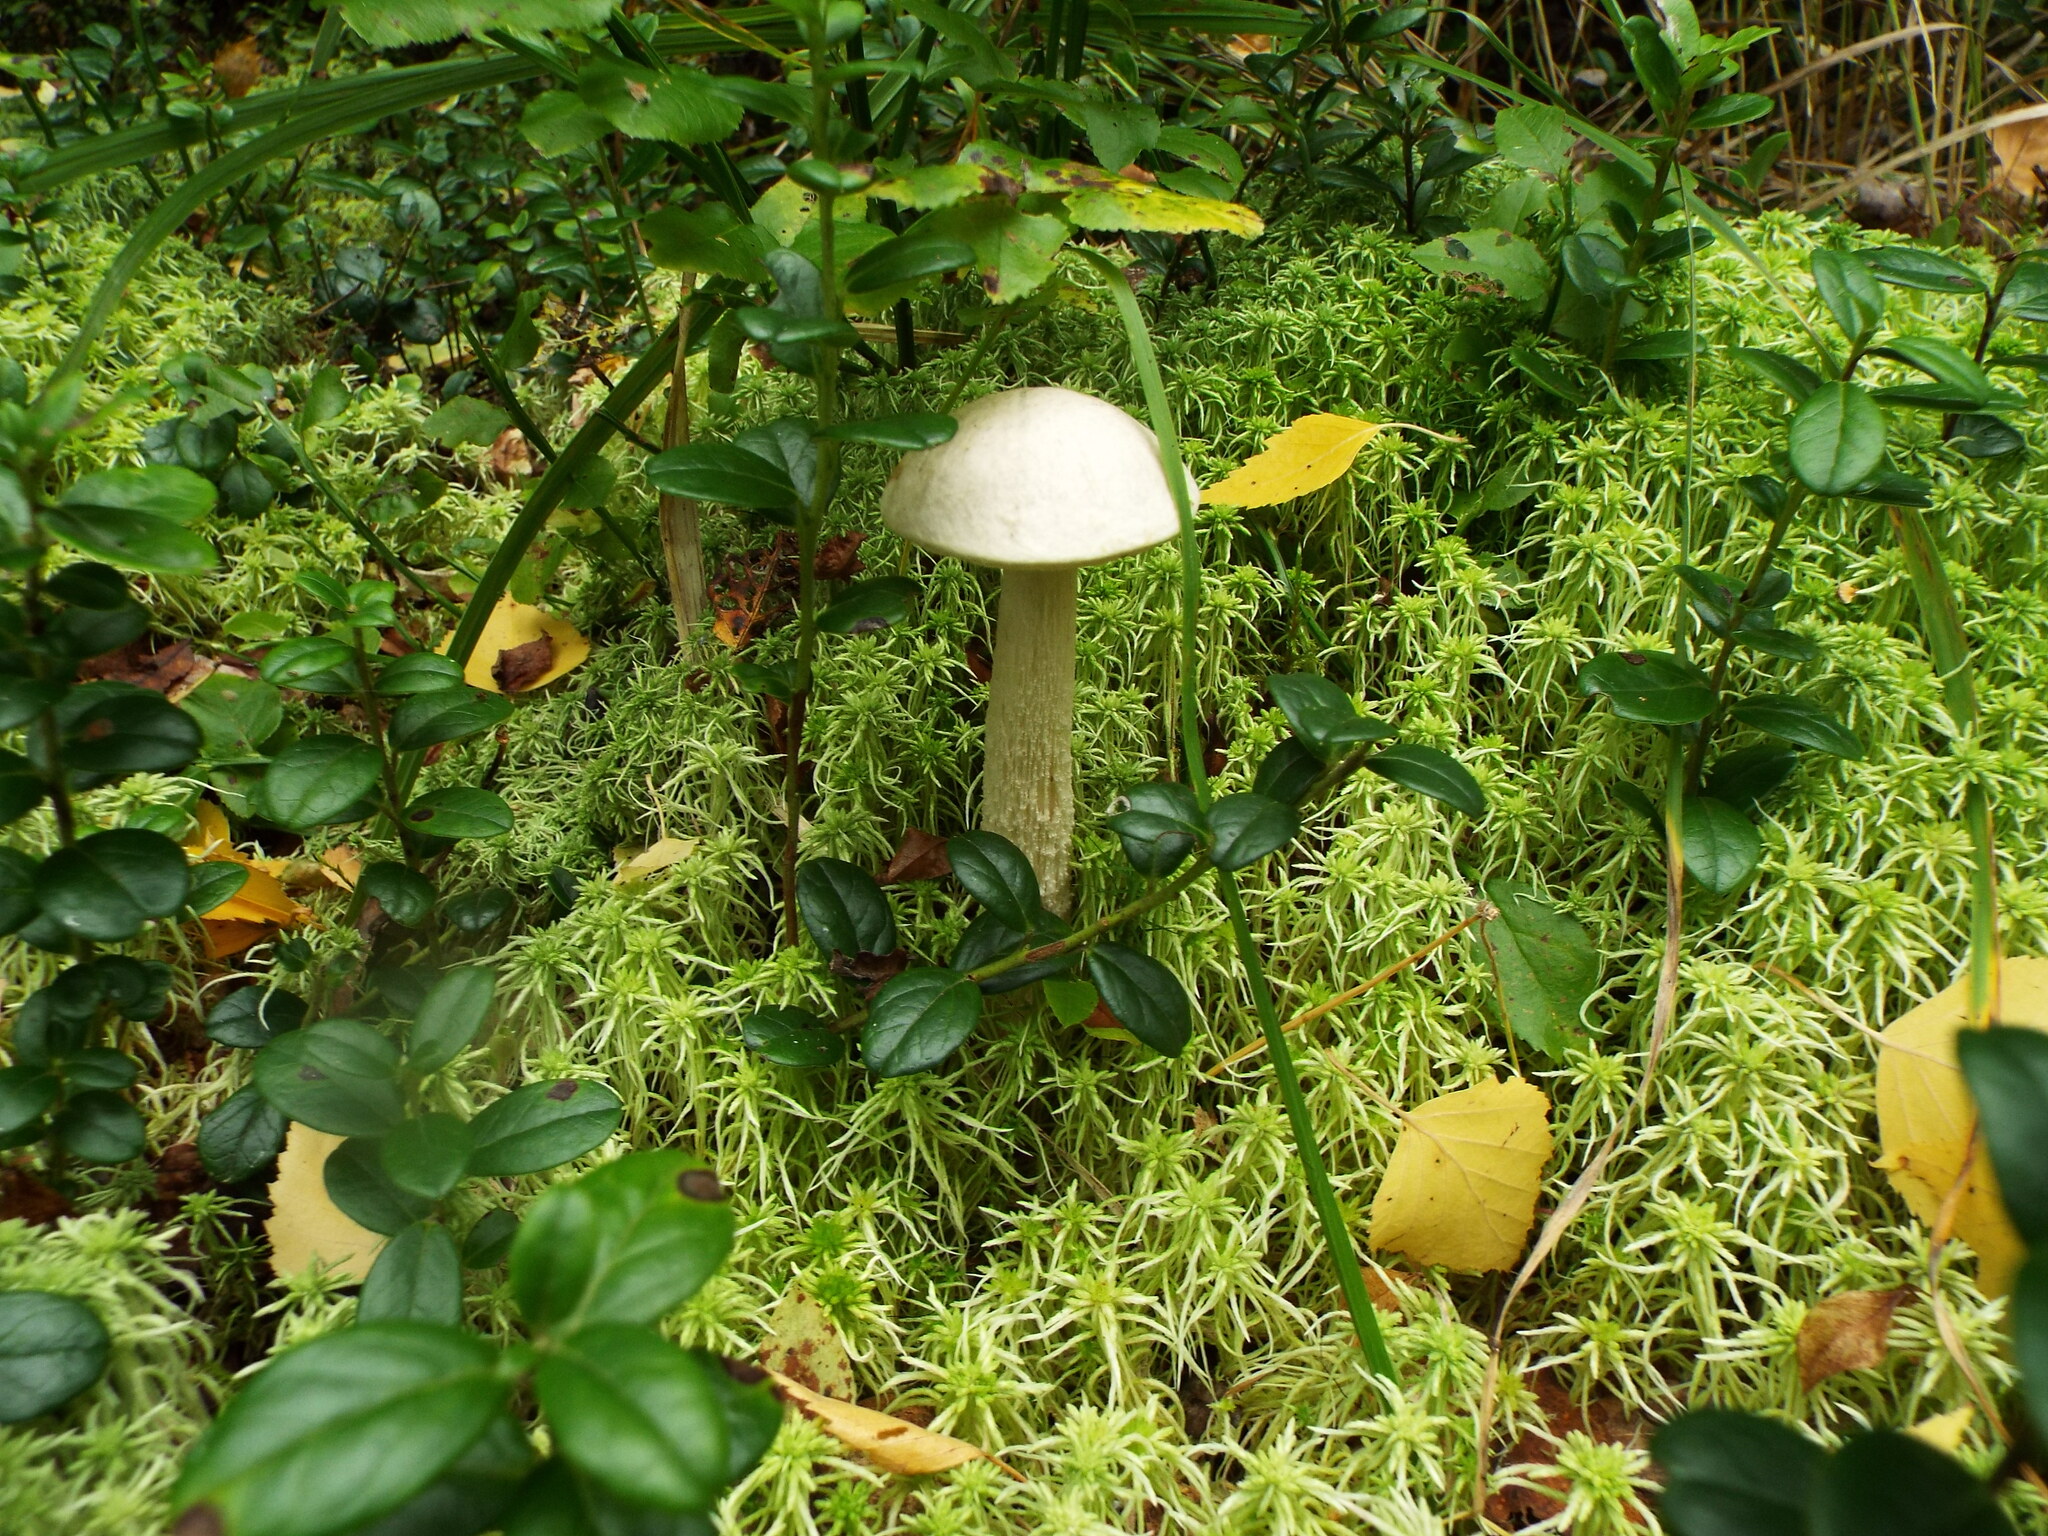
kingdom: Fungi
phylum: Basidiomycota
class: Agaricomycetes
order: Boletales
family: Boletaceae
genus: Leccinum
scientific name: Leccinum holopus
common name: Ghost bolete
